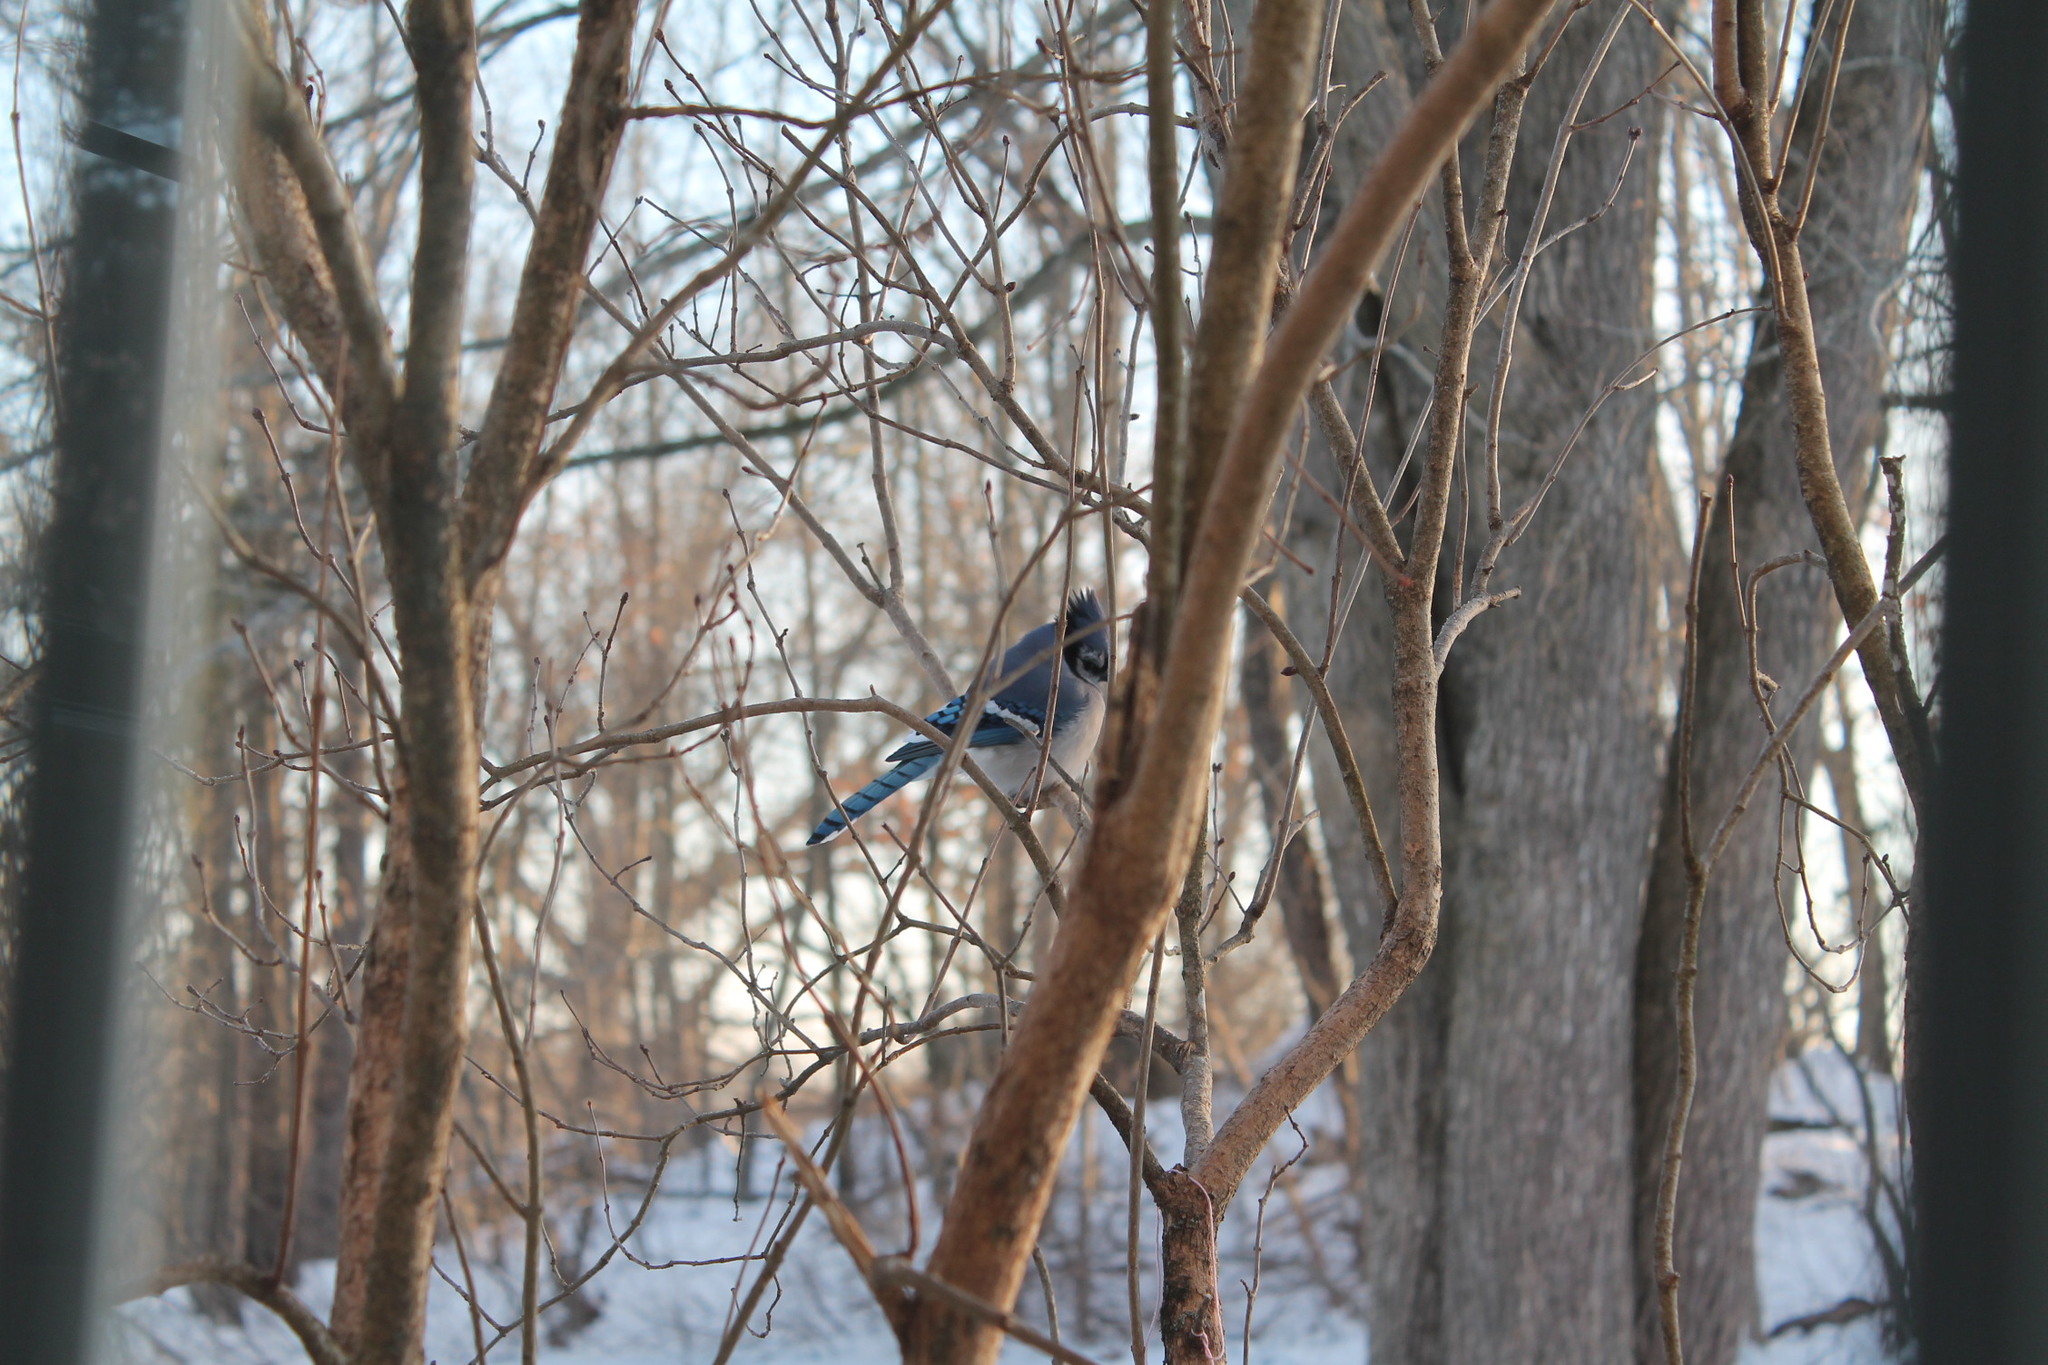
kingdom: Animalia
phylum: Chordata
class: Aves
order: Passeriformes
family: Corvidae
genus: Cyanocitta
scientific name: Cyanocitta cristata
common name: Blue jay
